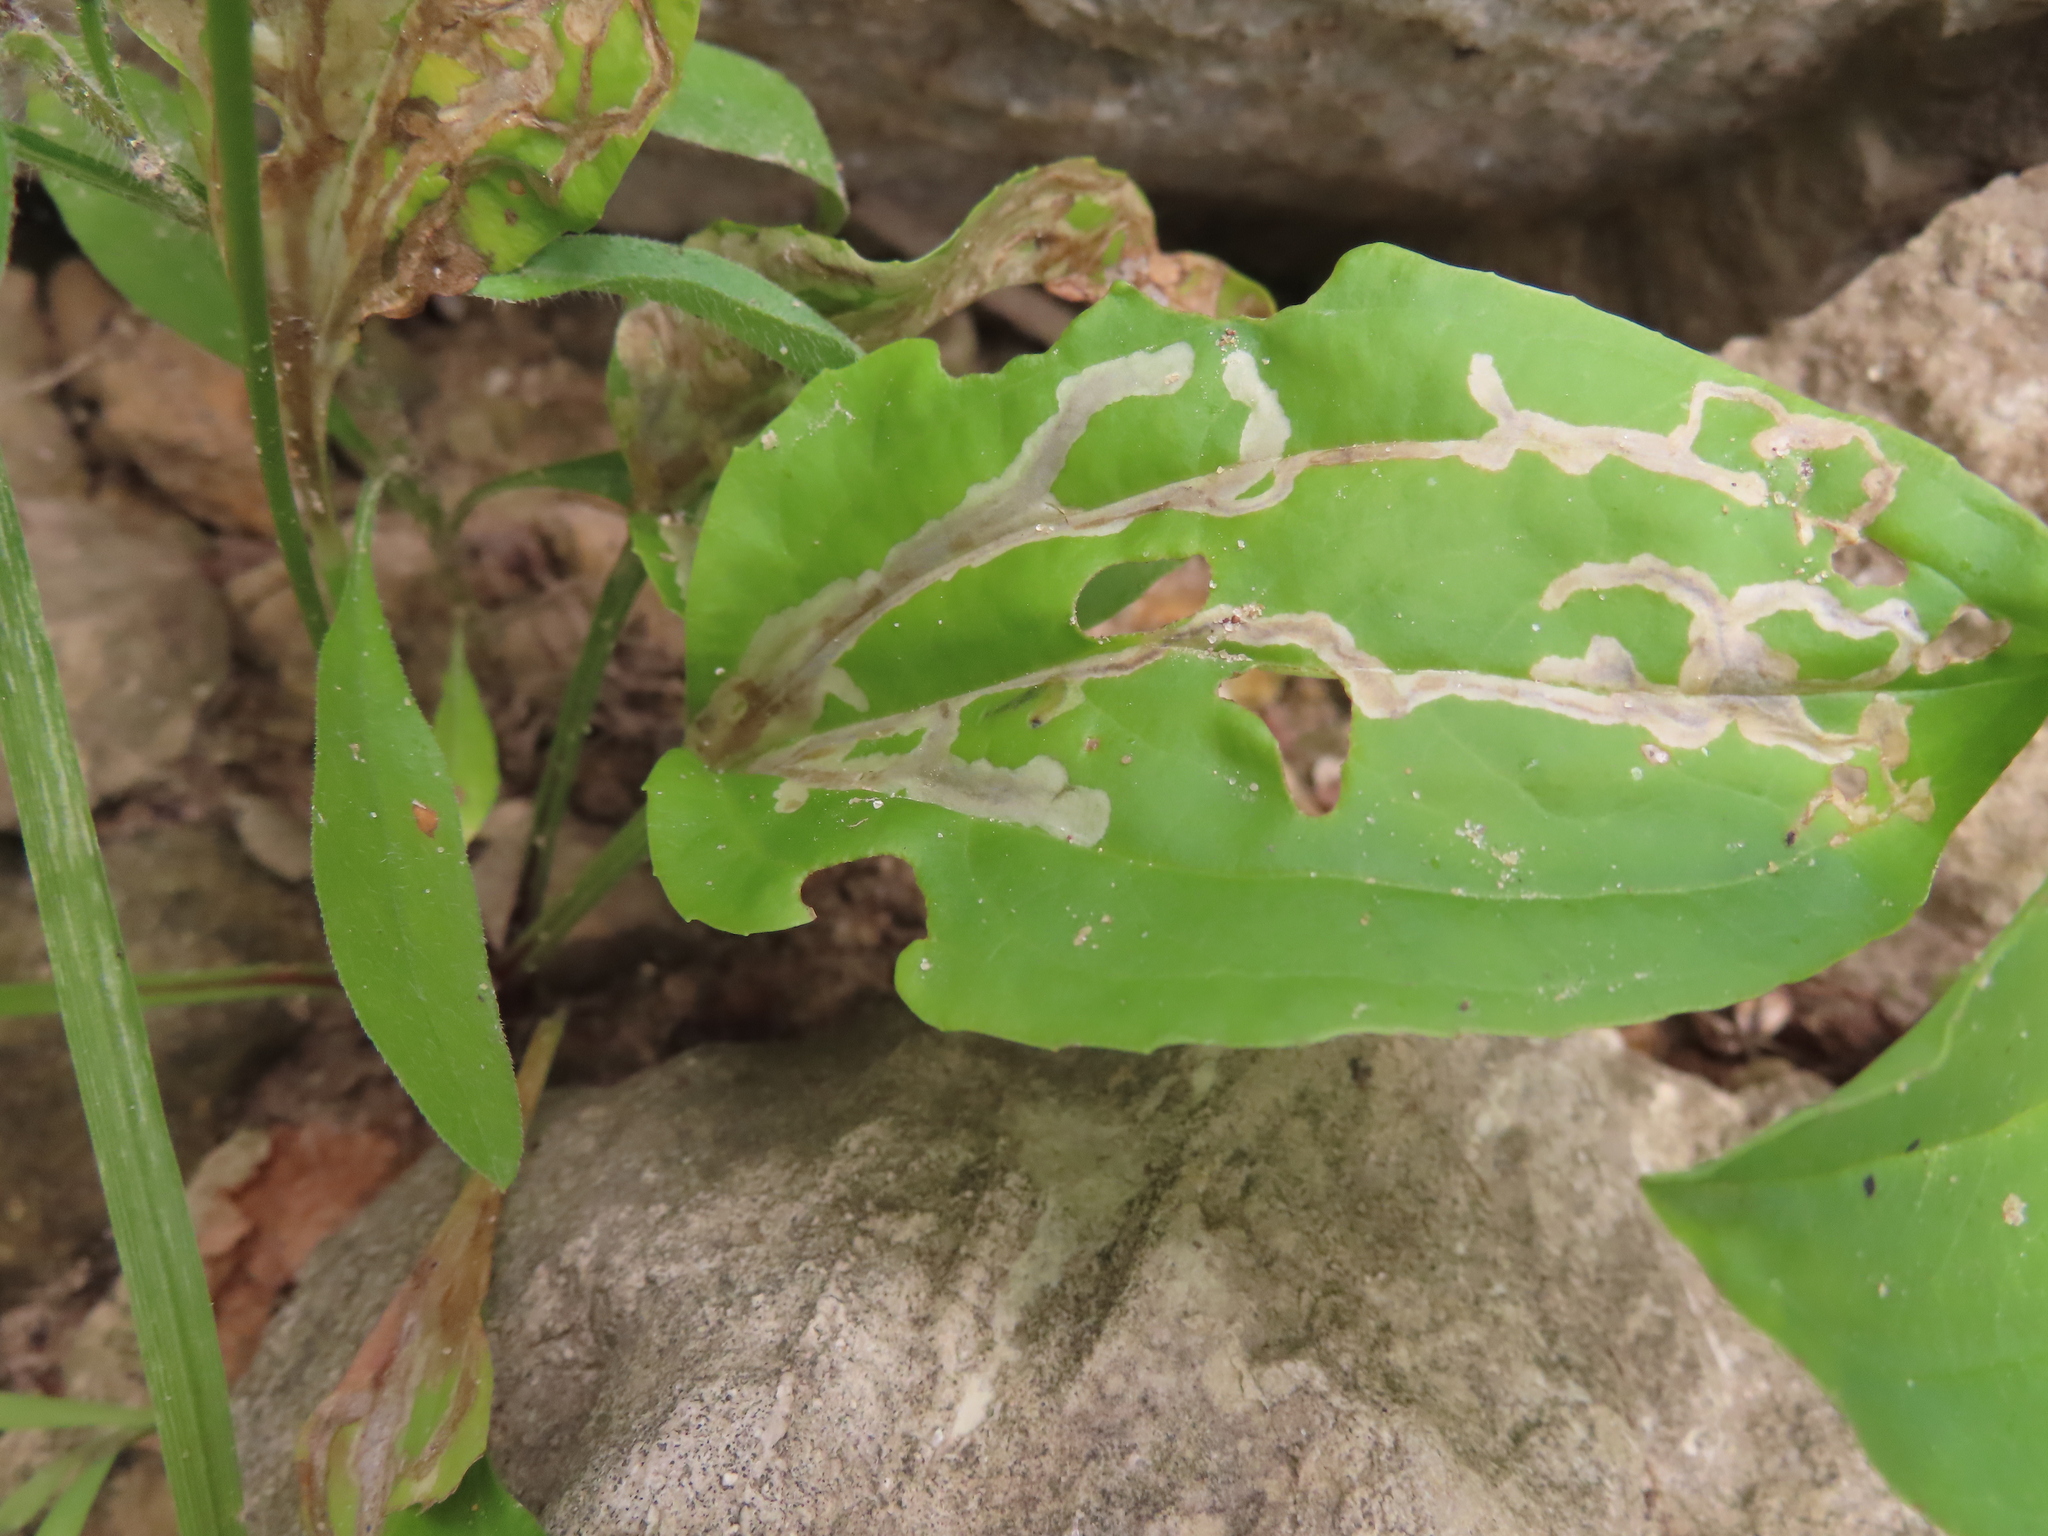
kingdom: Animalia
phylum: Arthropoda
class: Insecta
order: Coleoptera
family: Chrysomelidae
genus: Dibolia
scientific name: Dibolia borealis
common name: Northern plantain flea beetle
